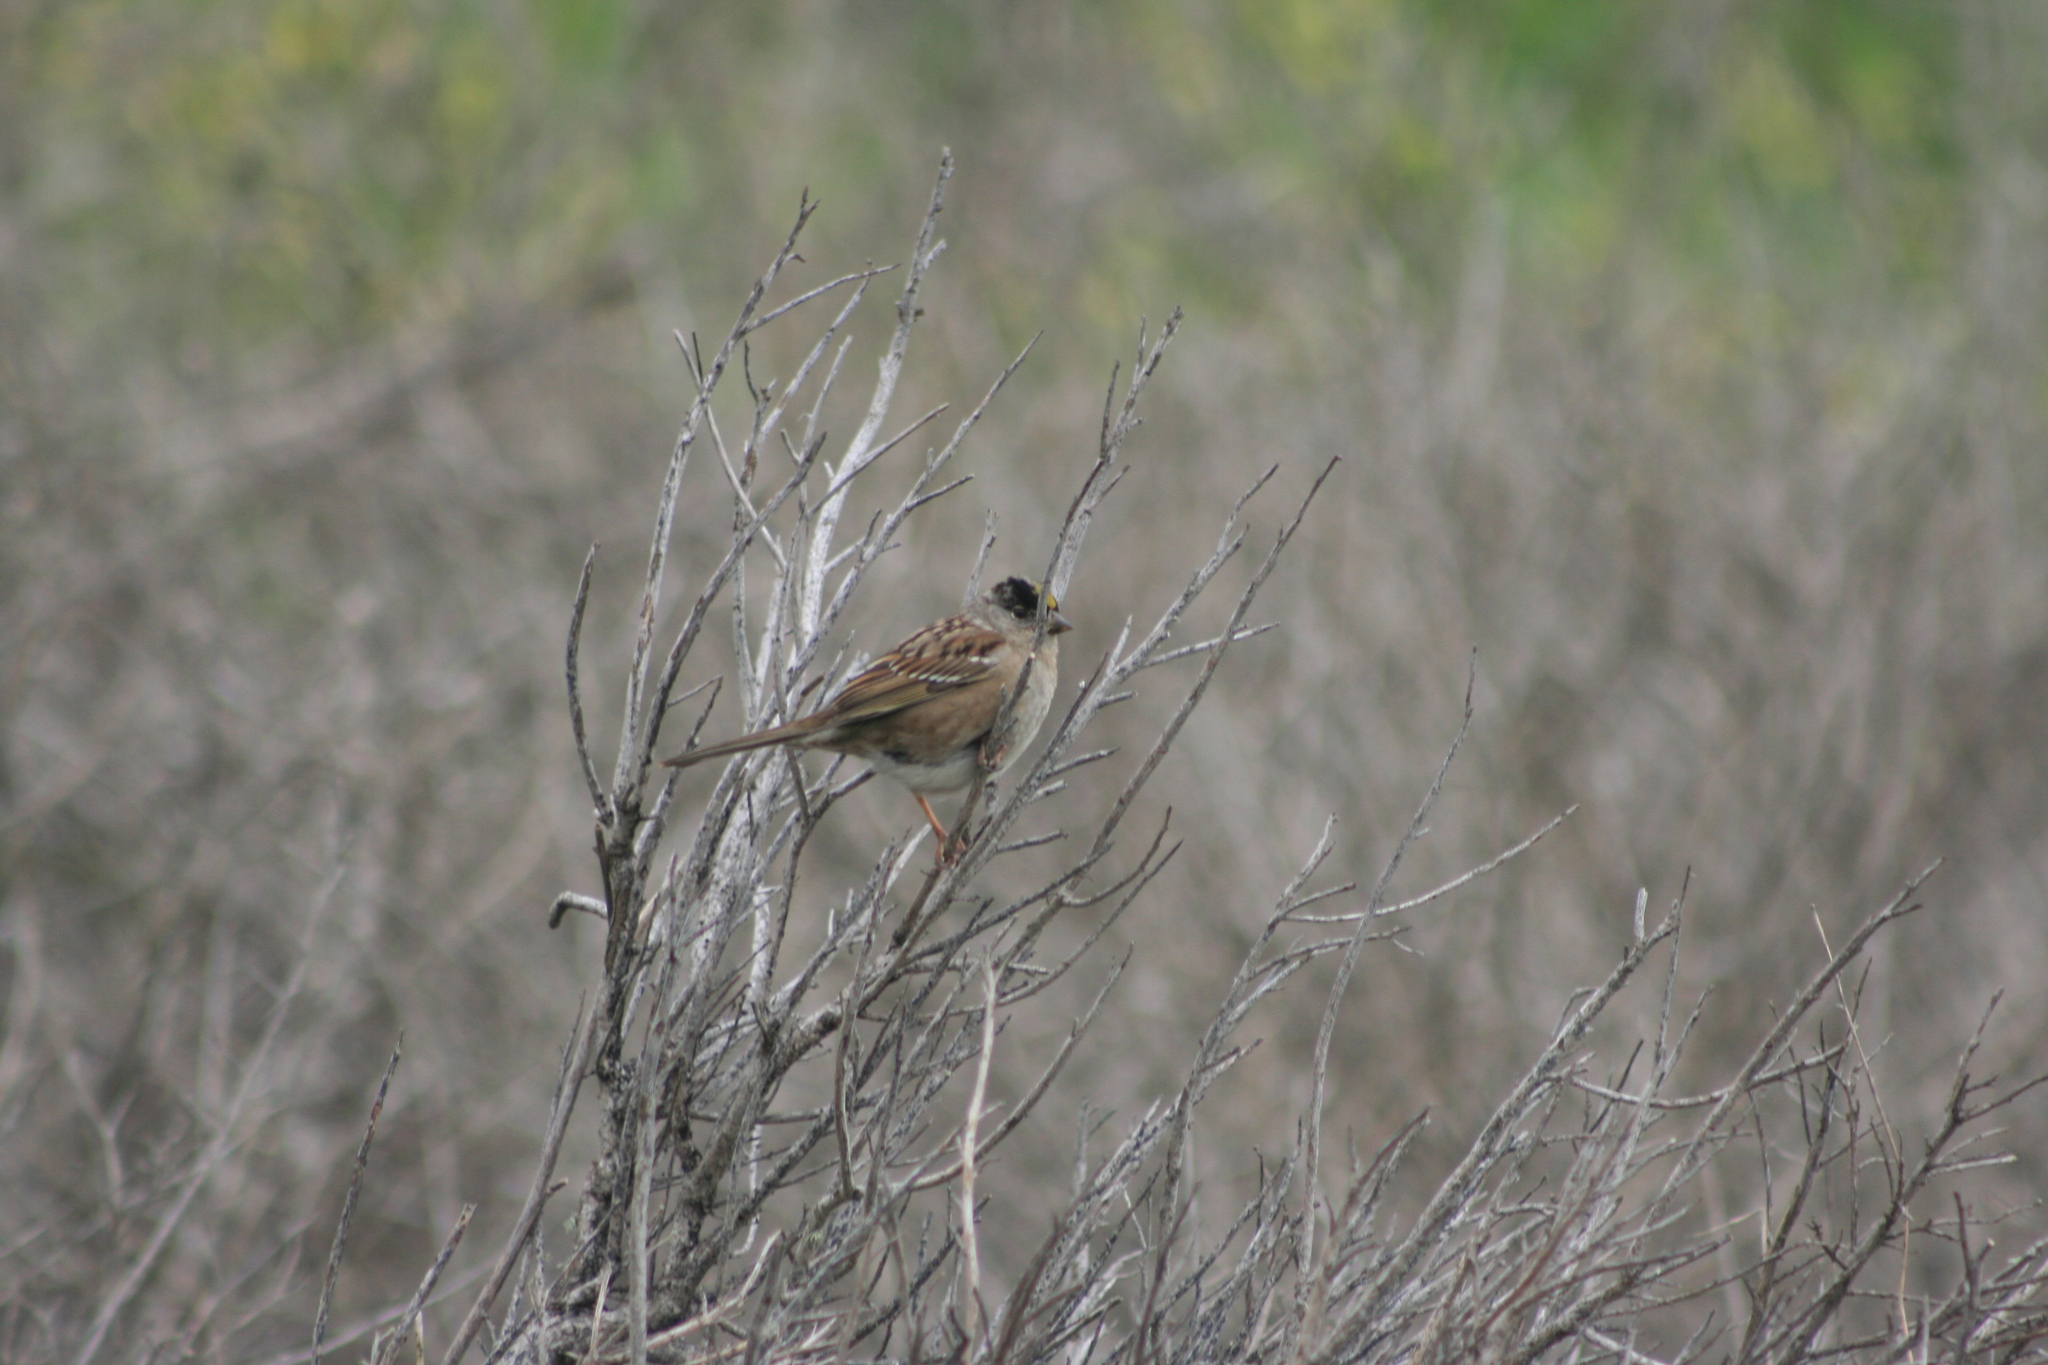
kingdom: Animalia
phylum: Chordata
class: Aves
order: Passeriformes
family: Passerellidae
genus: Zonotrichia
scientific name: Zonotrichia atricapilla
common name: Golden-crowned sparrow
